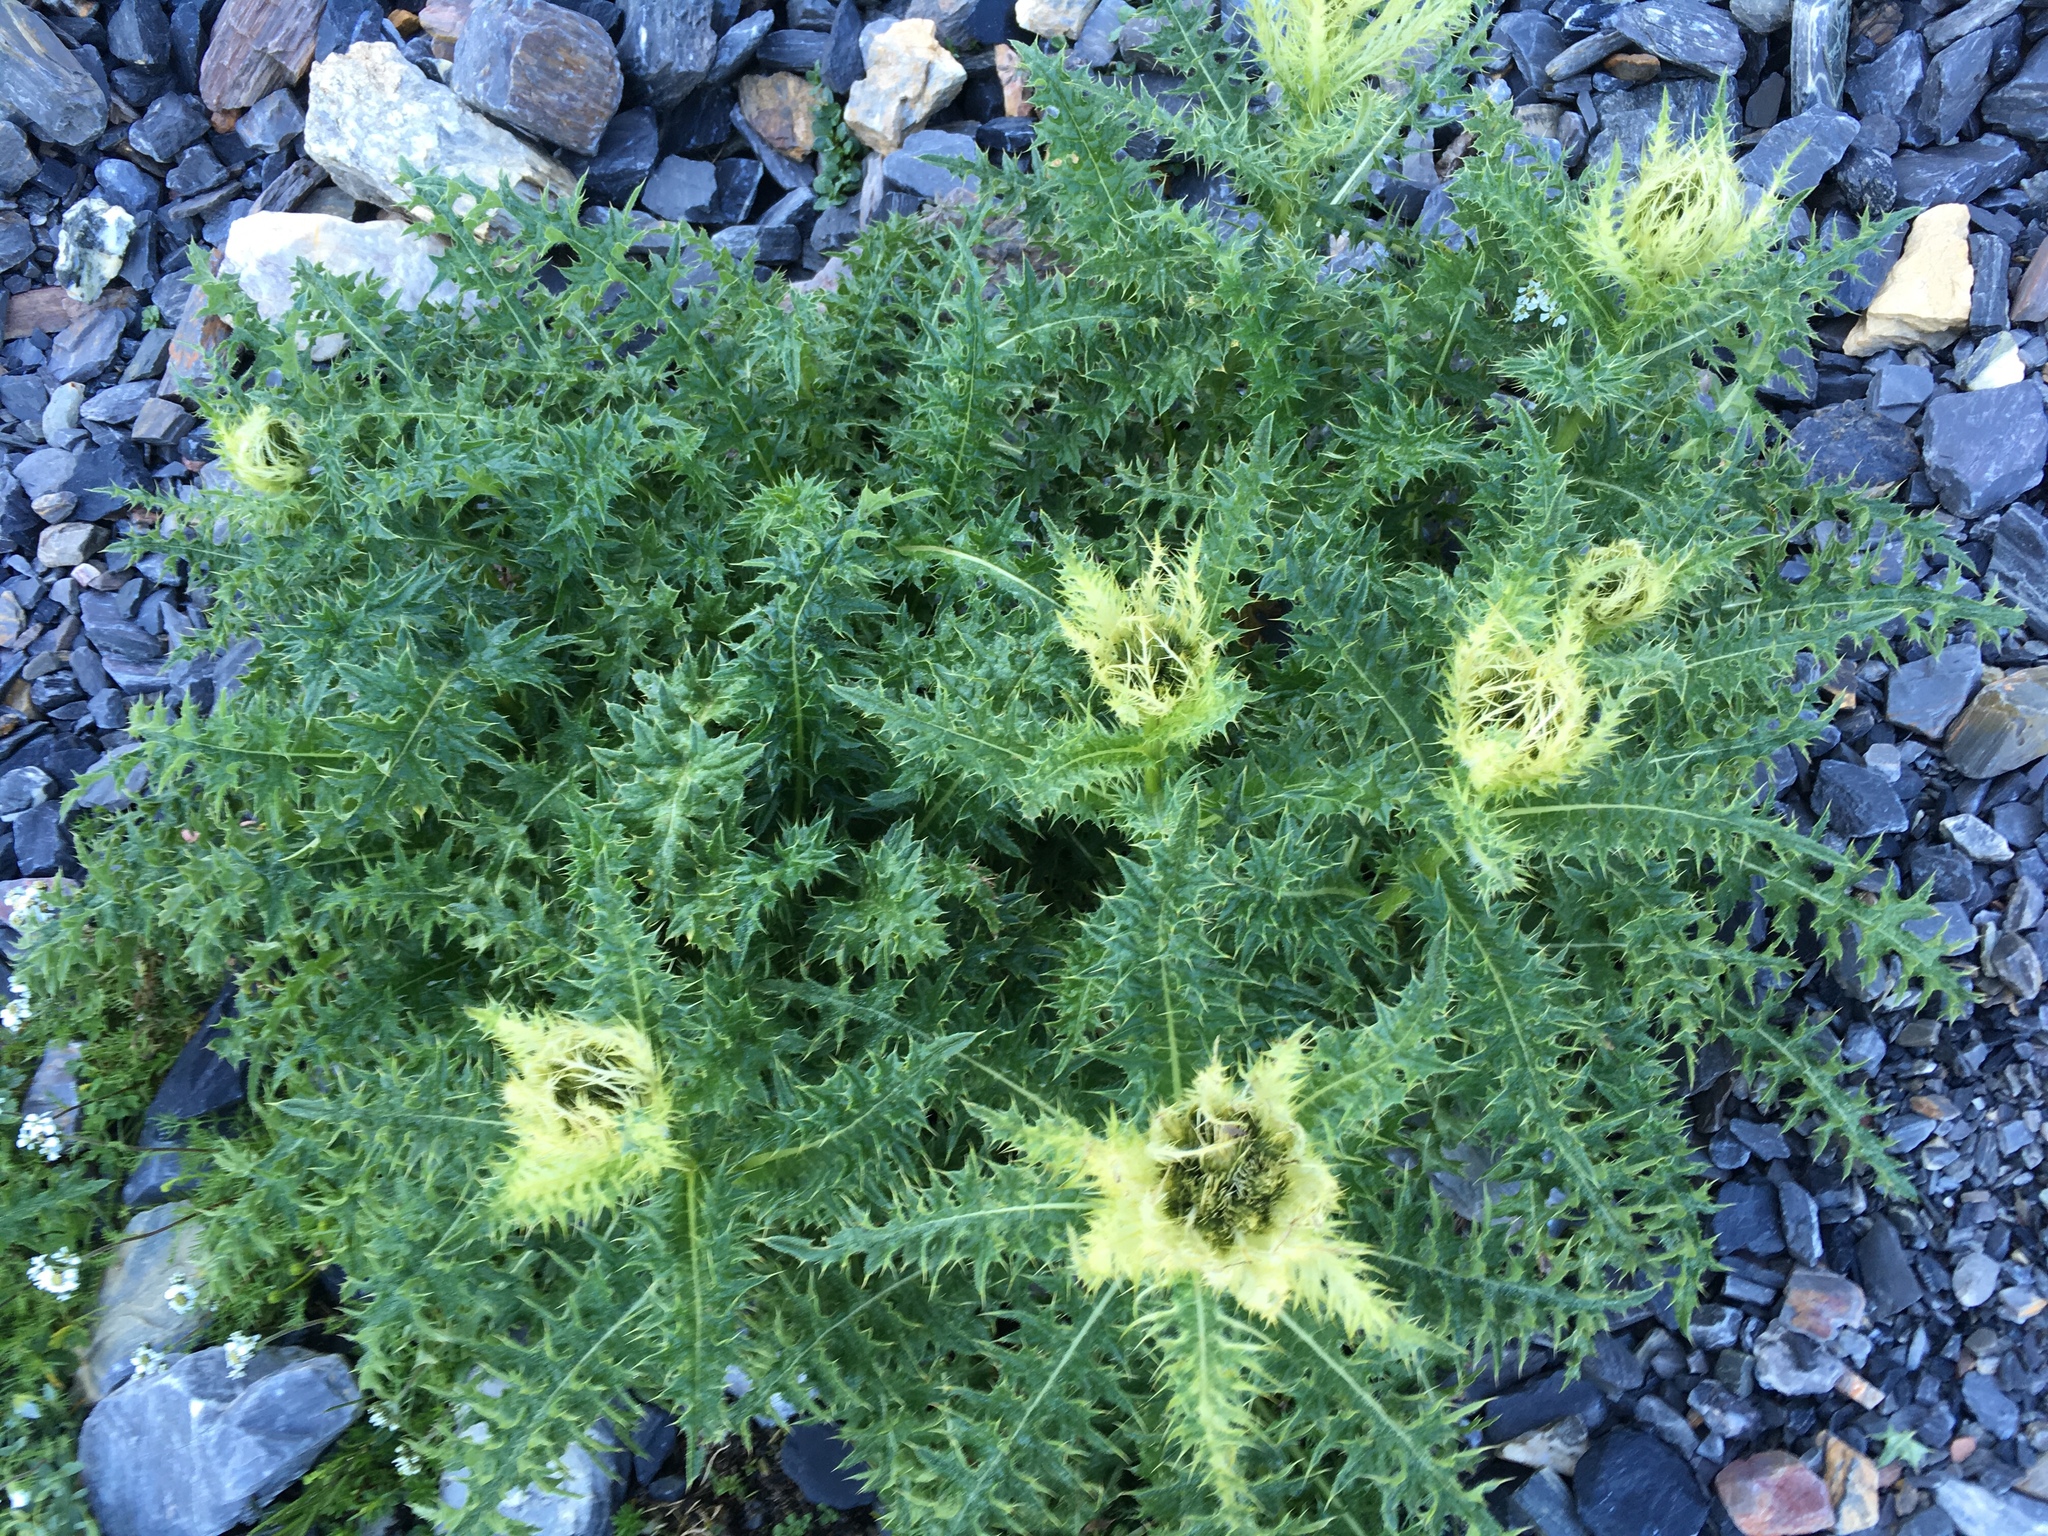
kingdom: Plantae
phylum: Tracheophyta
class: Magnoliopsida
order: Asterales
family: Asteraceae
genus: Cirsium
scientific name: Cirsium spinosissimum
